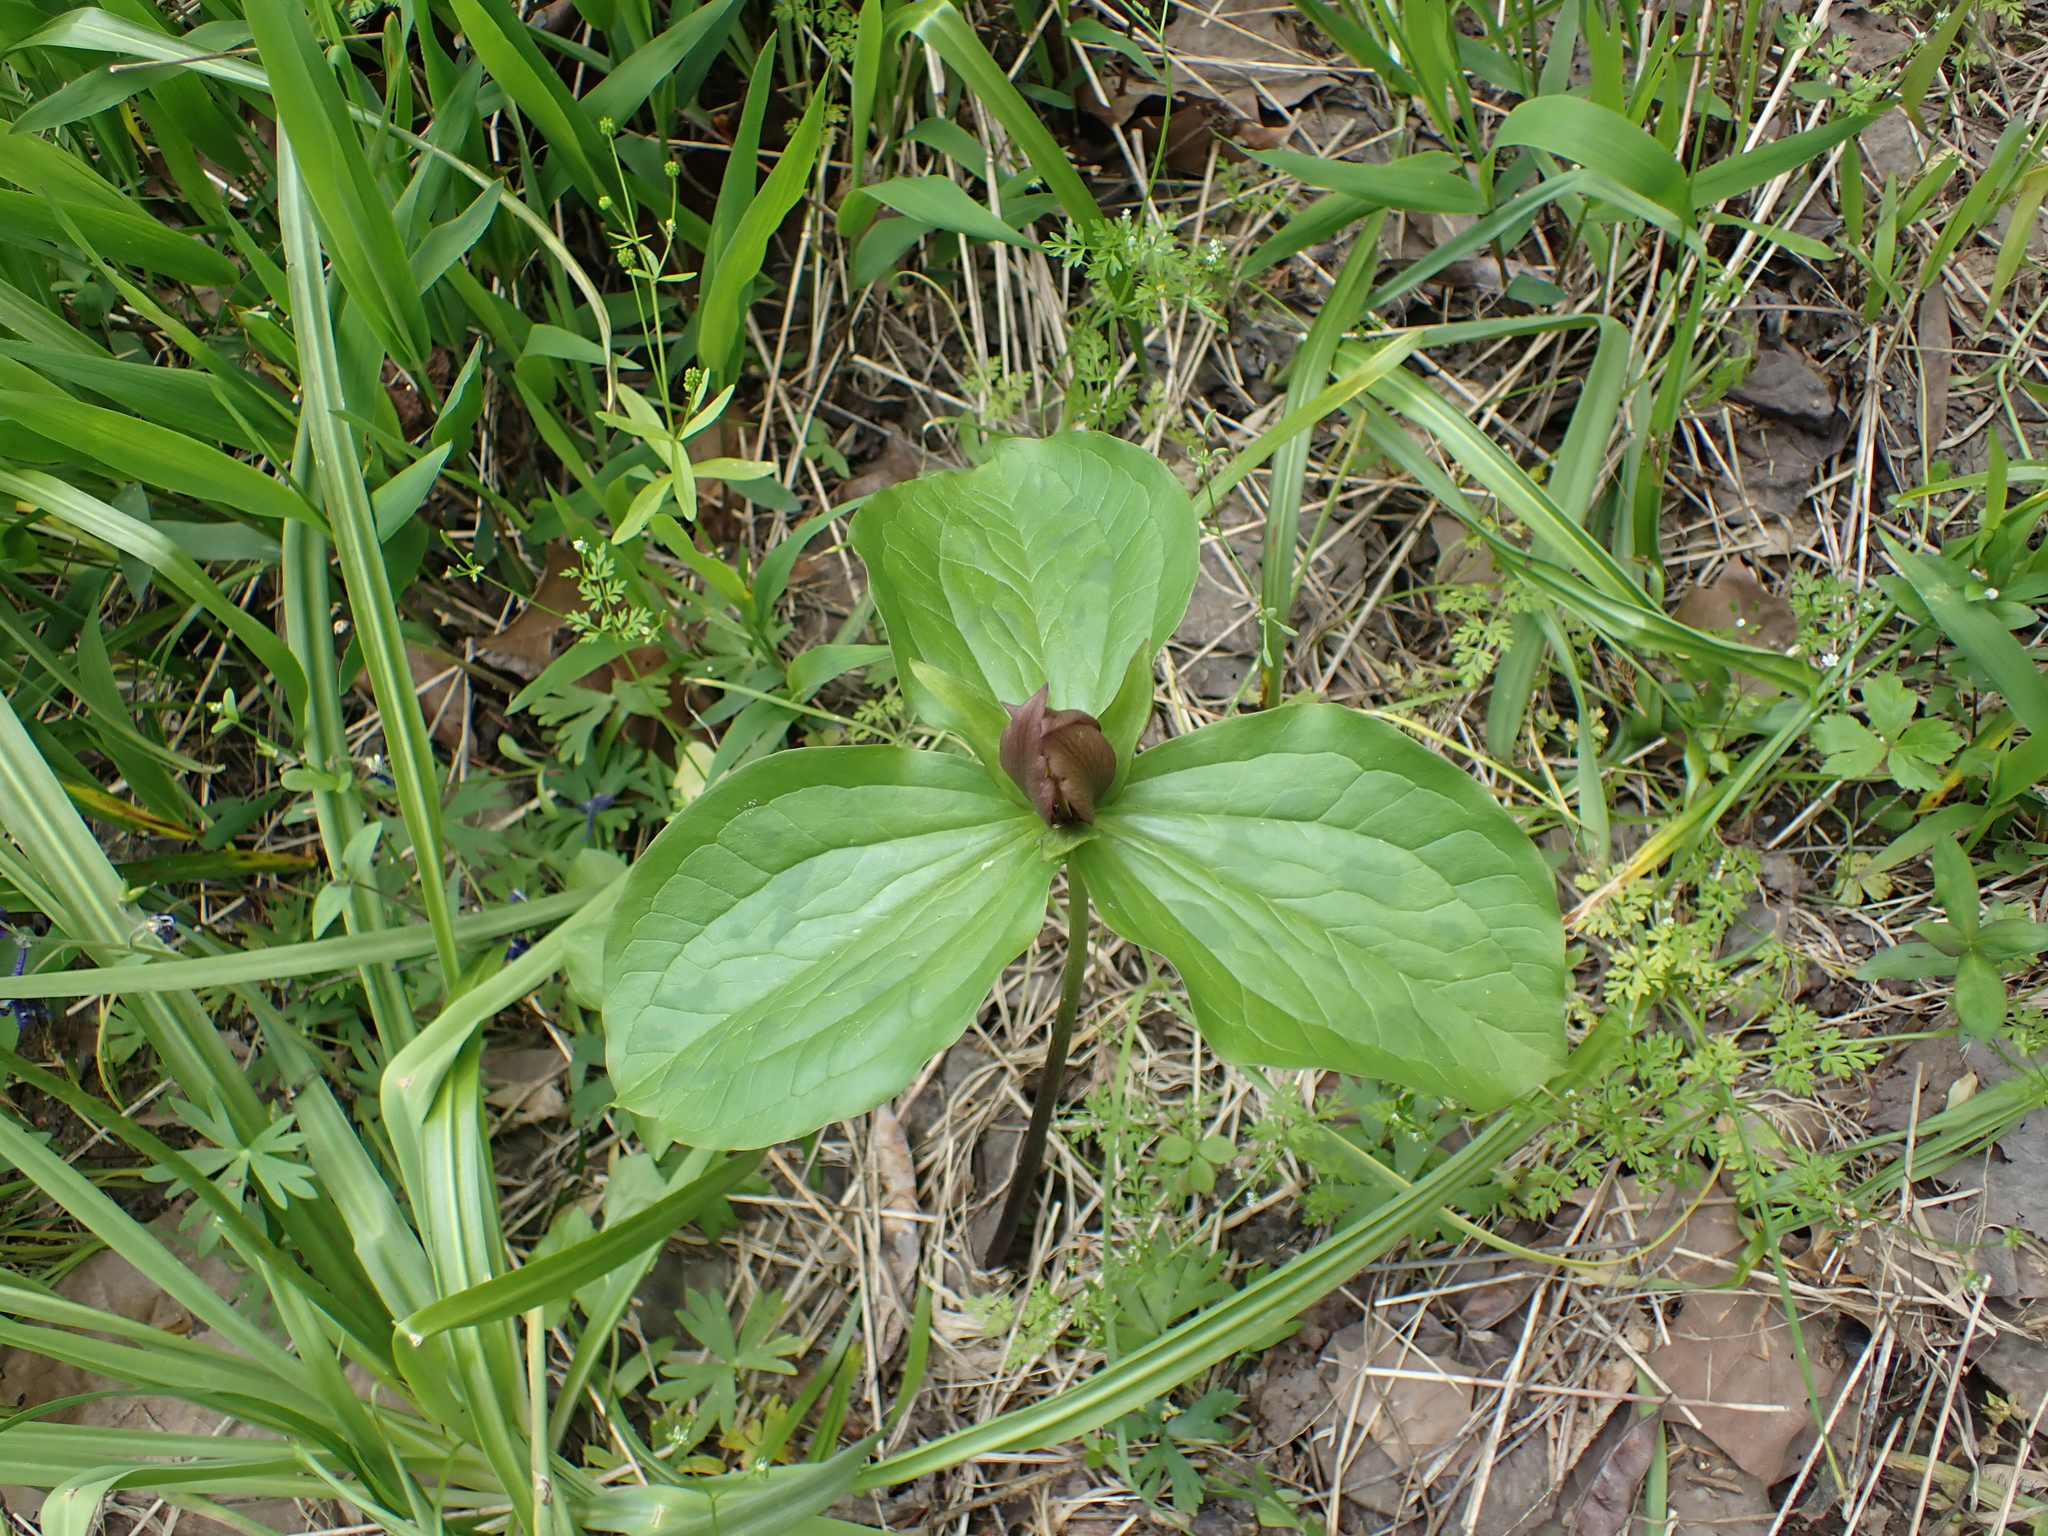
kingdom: Plantae
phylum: Tracheophyta
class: Liliopsida
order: Liliales
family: Melanthiaceae
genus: Trillium
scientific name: Trillium sessile
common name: Sessile trillium
